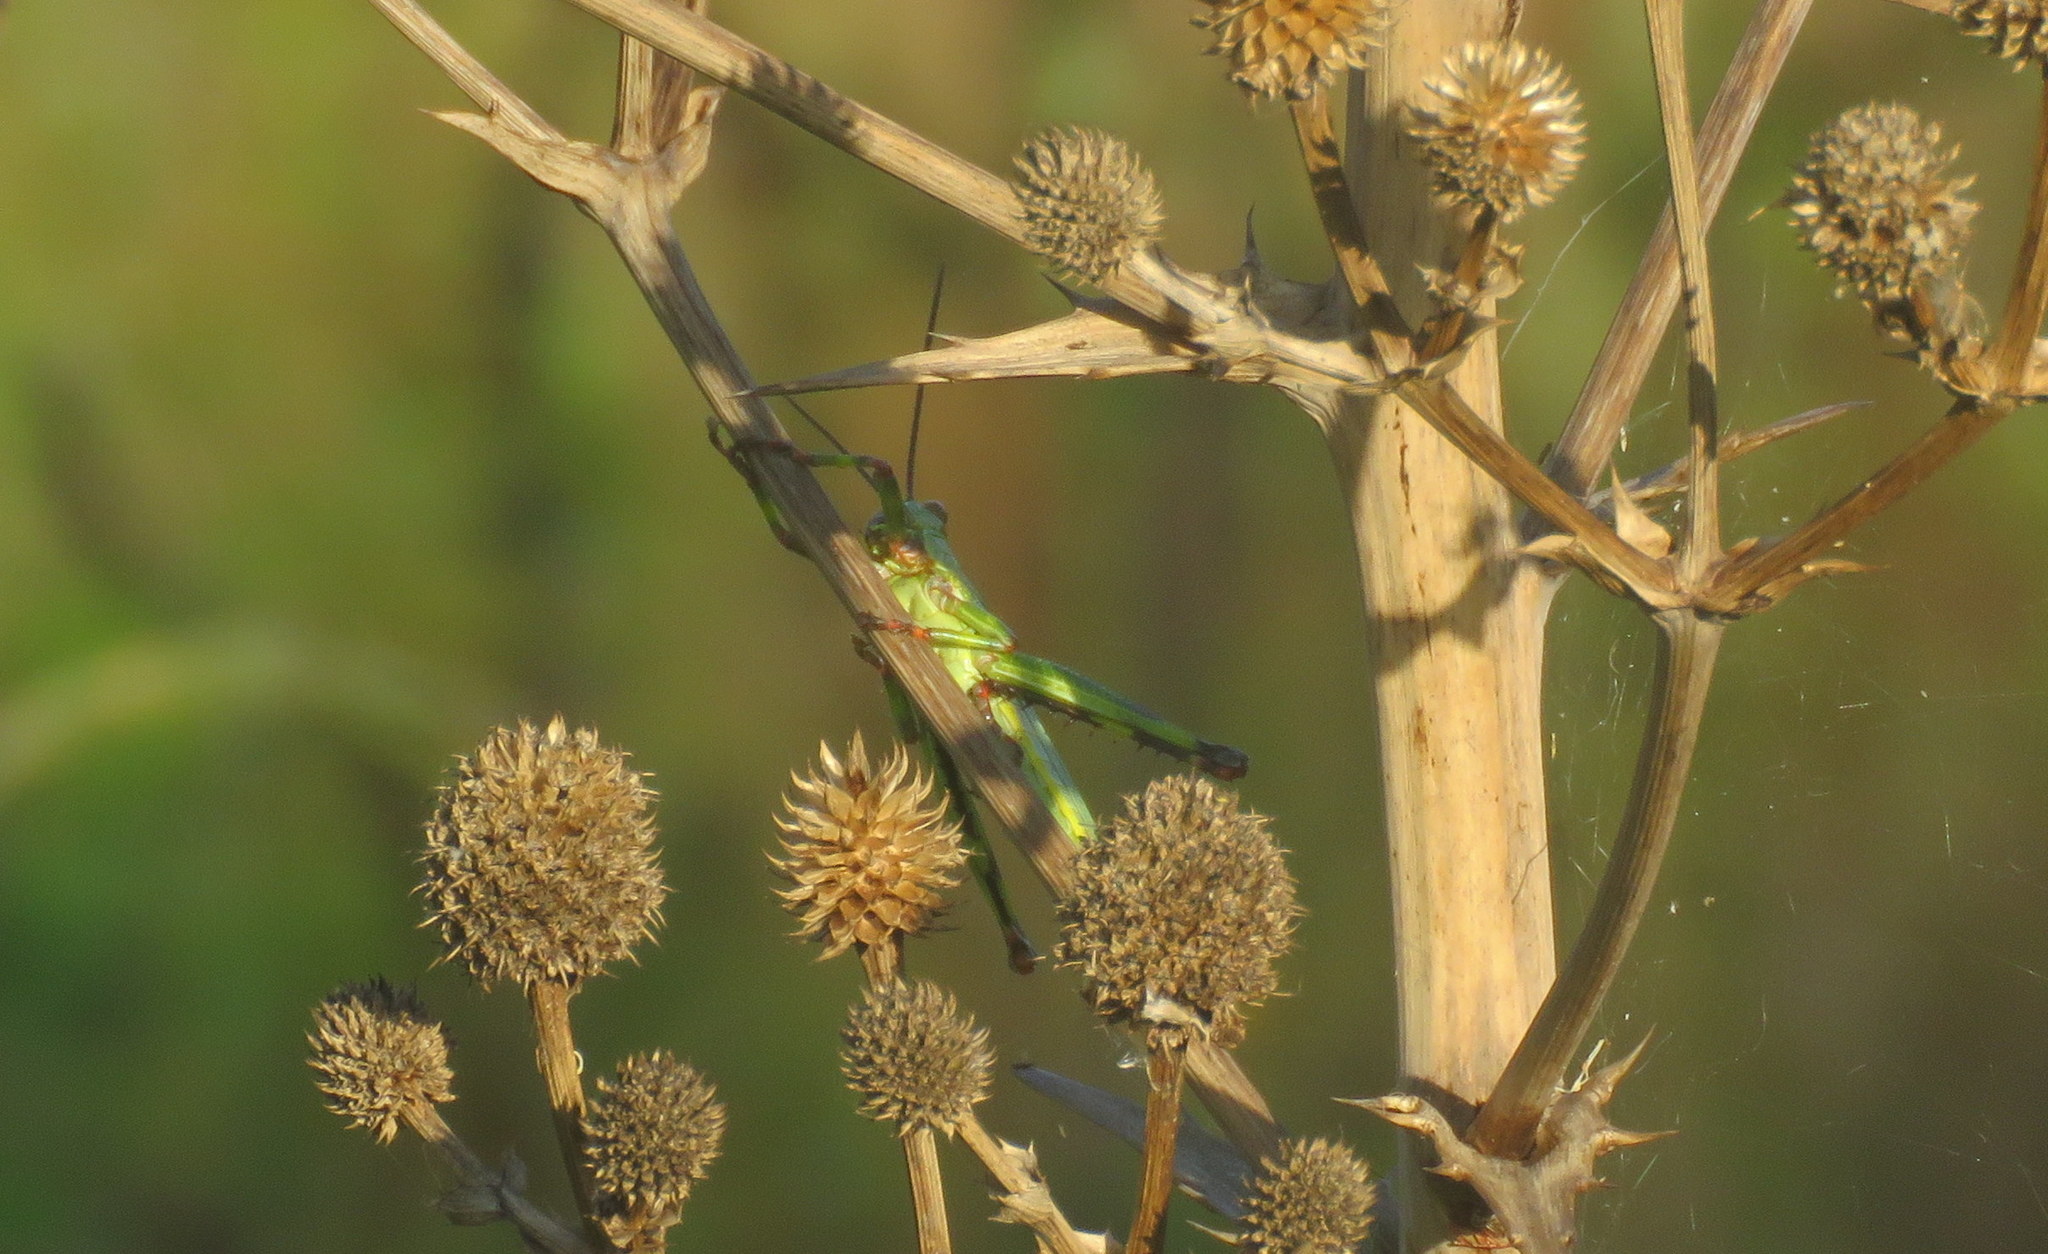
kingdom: Animalia
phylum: Arthropoda
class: Insecta
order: Orthoptera
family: Romaleidae
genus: Zoniopoda
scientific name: Zoniopoda tarsata
